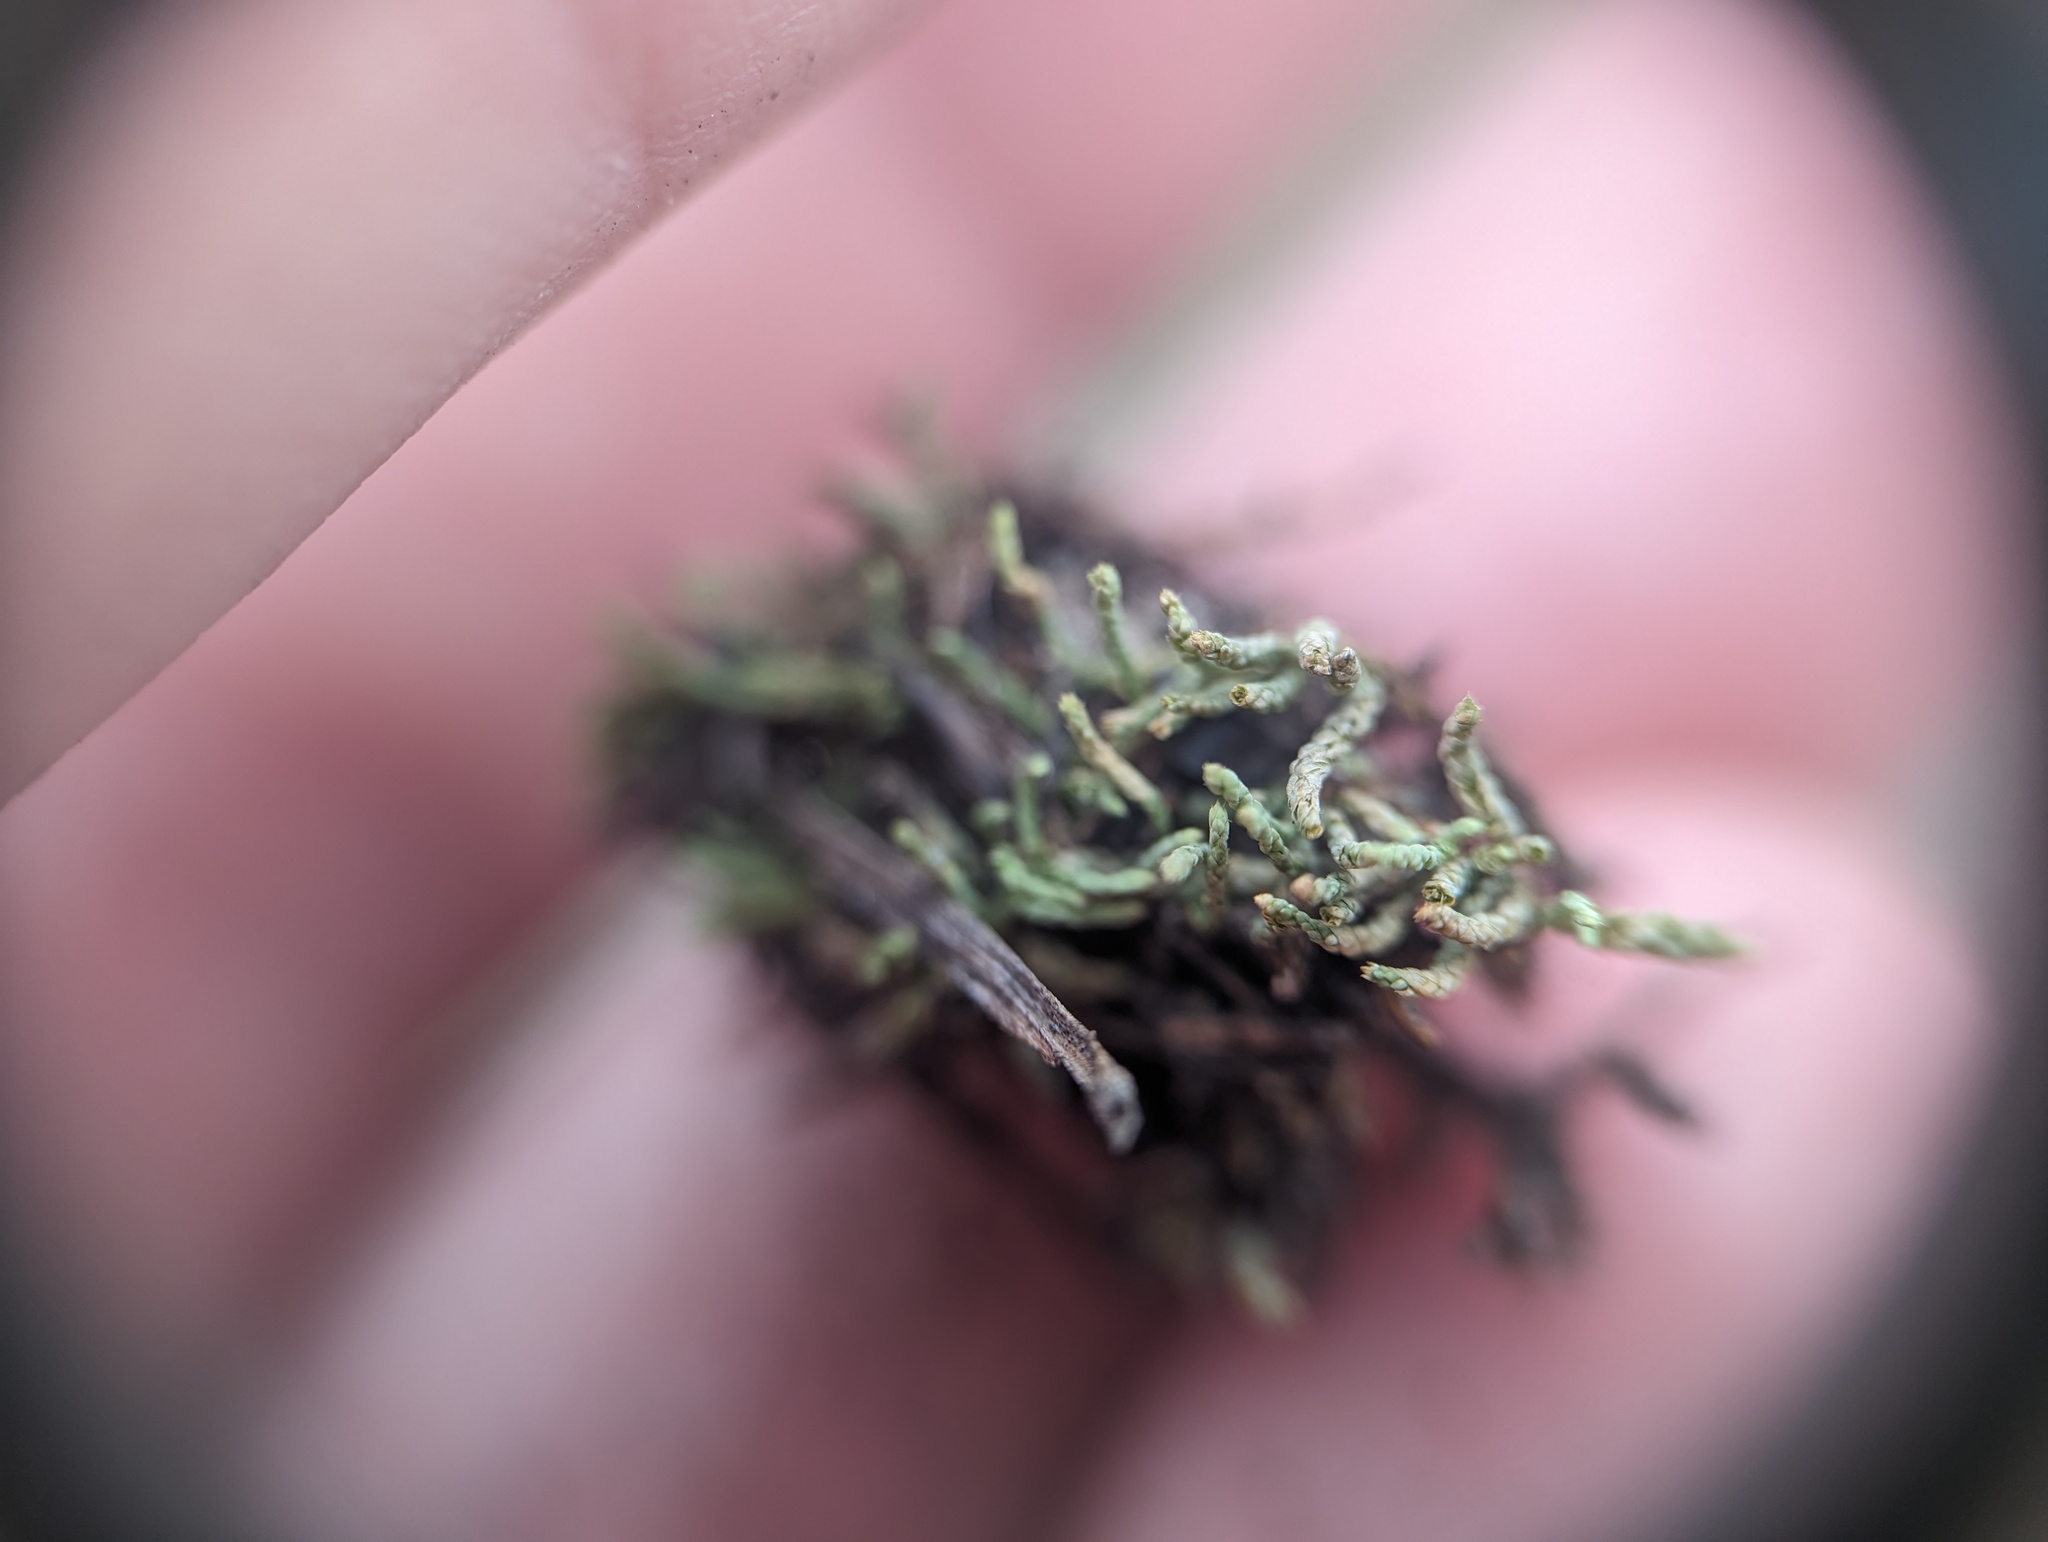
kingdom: Plantae
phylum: Bryophyta
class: Bryopsida
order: Hypnales
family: Theliaceae
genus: Thelia
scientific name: Thelia lescurii
